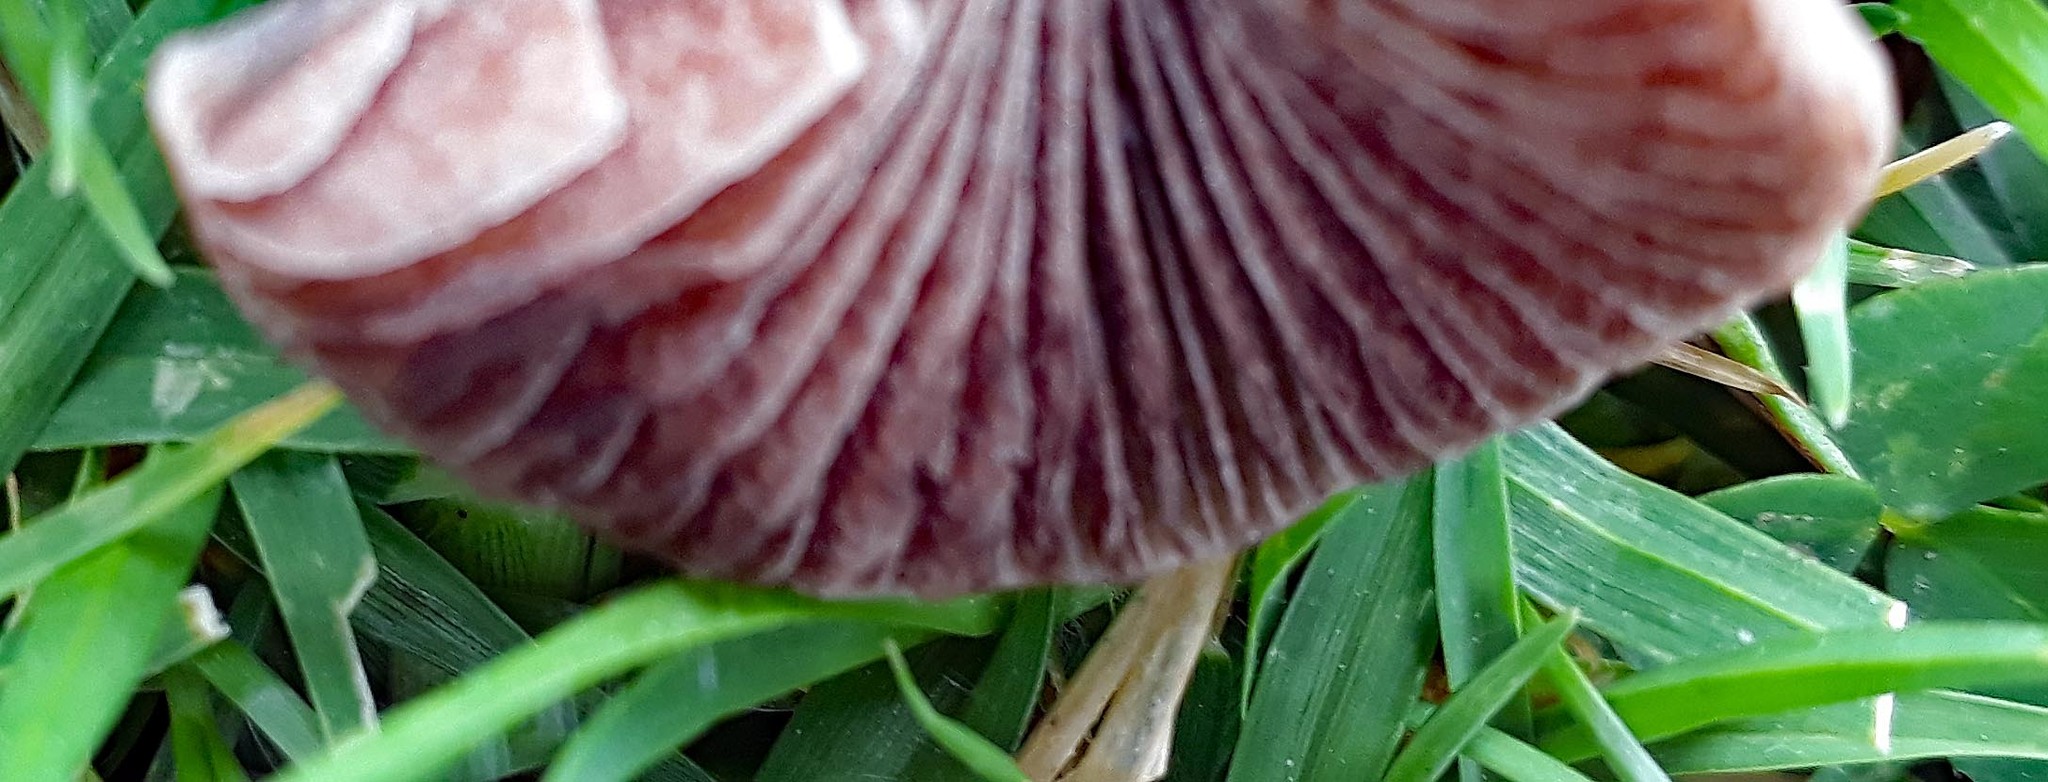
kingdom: Fungi
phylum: Basidiomycota
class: Agaricomycetes
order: Agaricales
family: Bolbitiaceae
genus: Panaeolina
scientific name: Panaeolina foenisecii
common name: Brown hay cap
